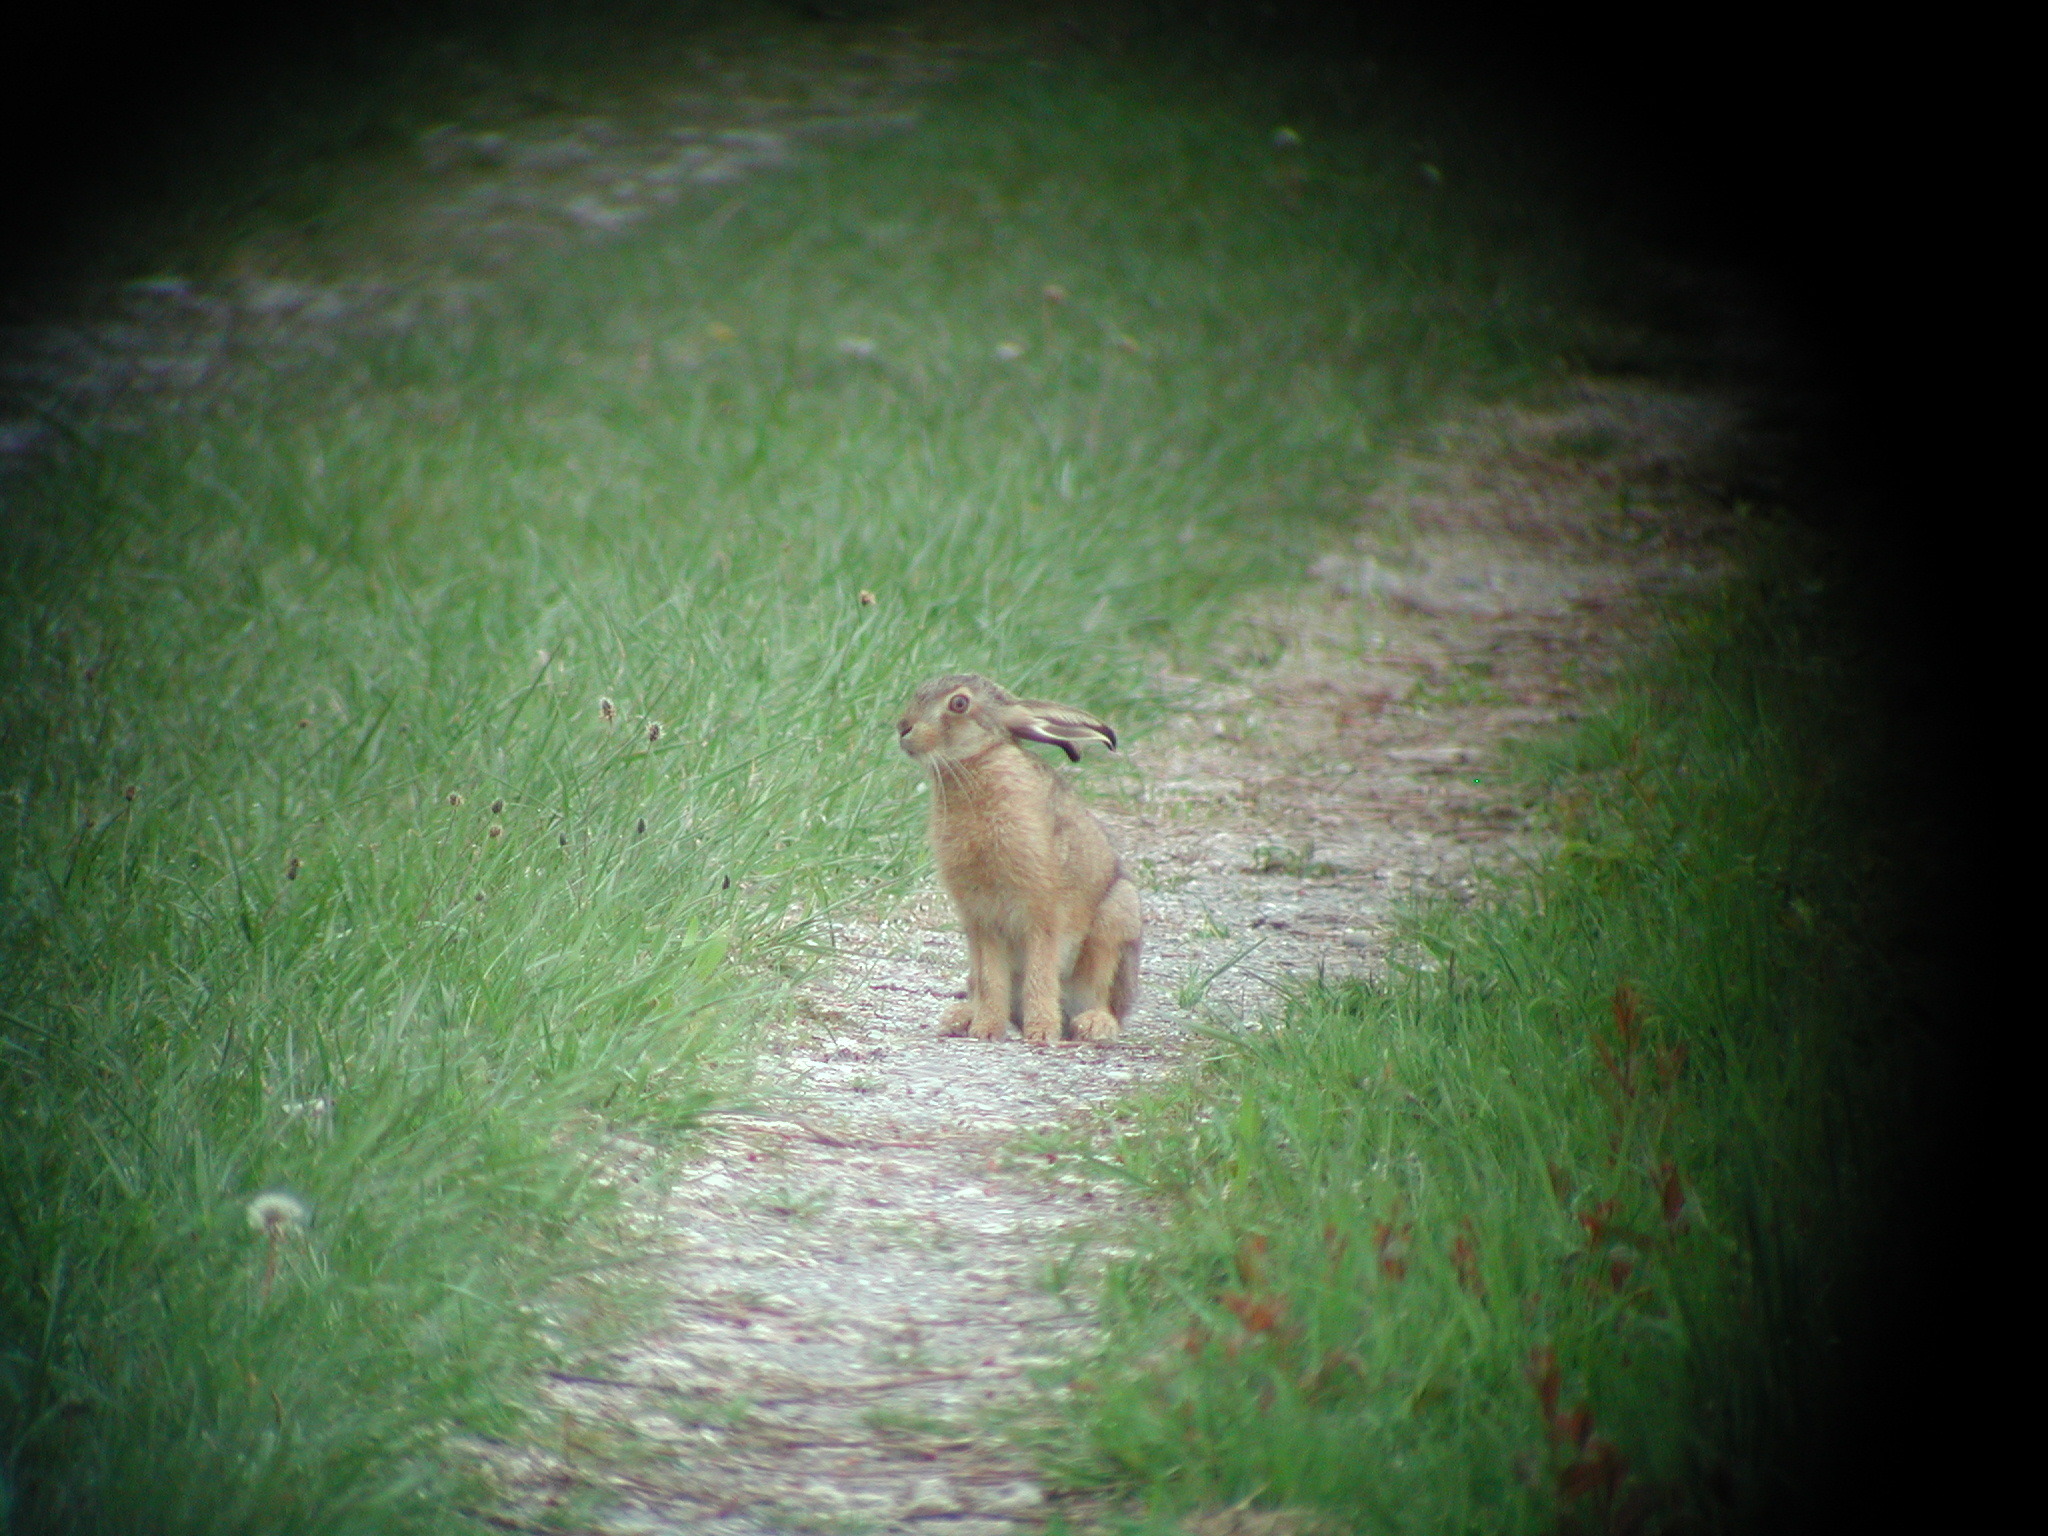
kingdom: Animalia
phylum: Chordata
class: Mammalia
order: Lagomorpha
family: Leporidae
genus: Lepus
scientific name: Lepus europaeus
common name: European hare
